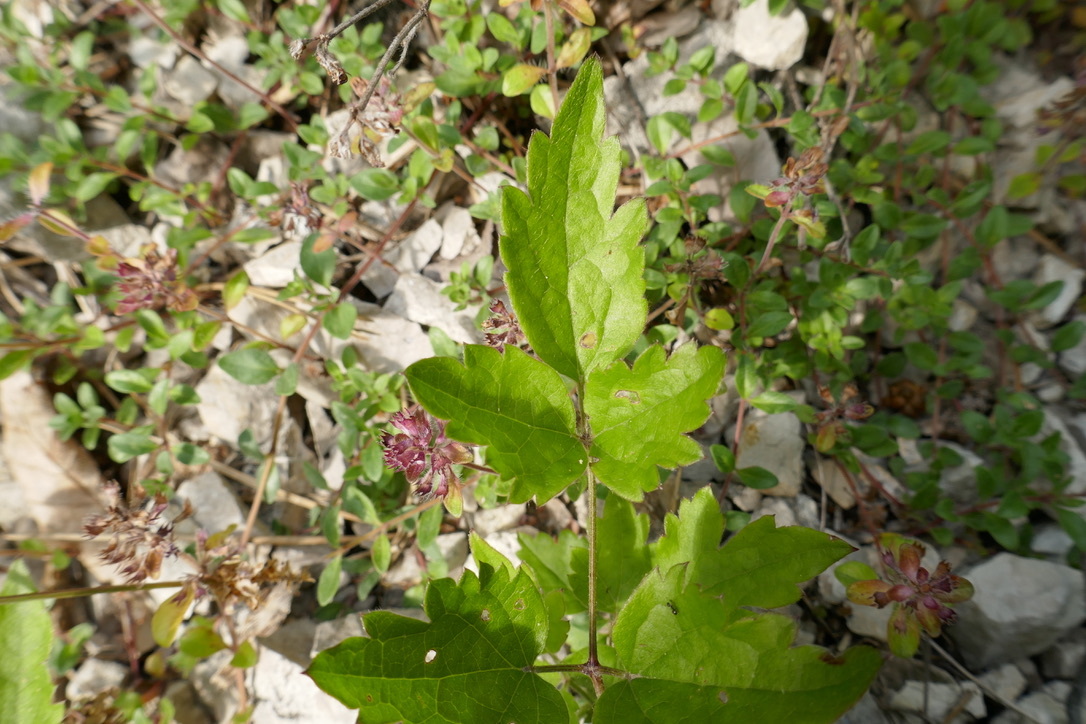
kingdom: Plantae
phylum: Tracheophyta
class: Magnoliopsida
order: Ranunculales
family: Ranunculaceae
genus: Clematis
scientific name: Clematis vitalba
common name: Evergreen clematis
